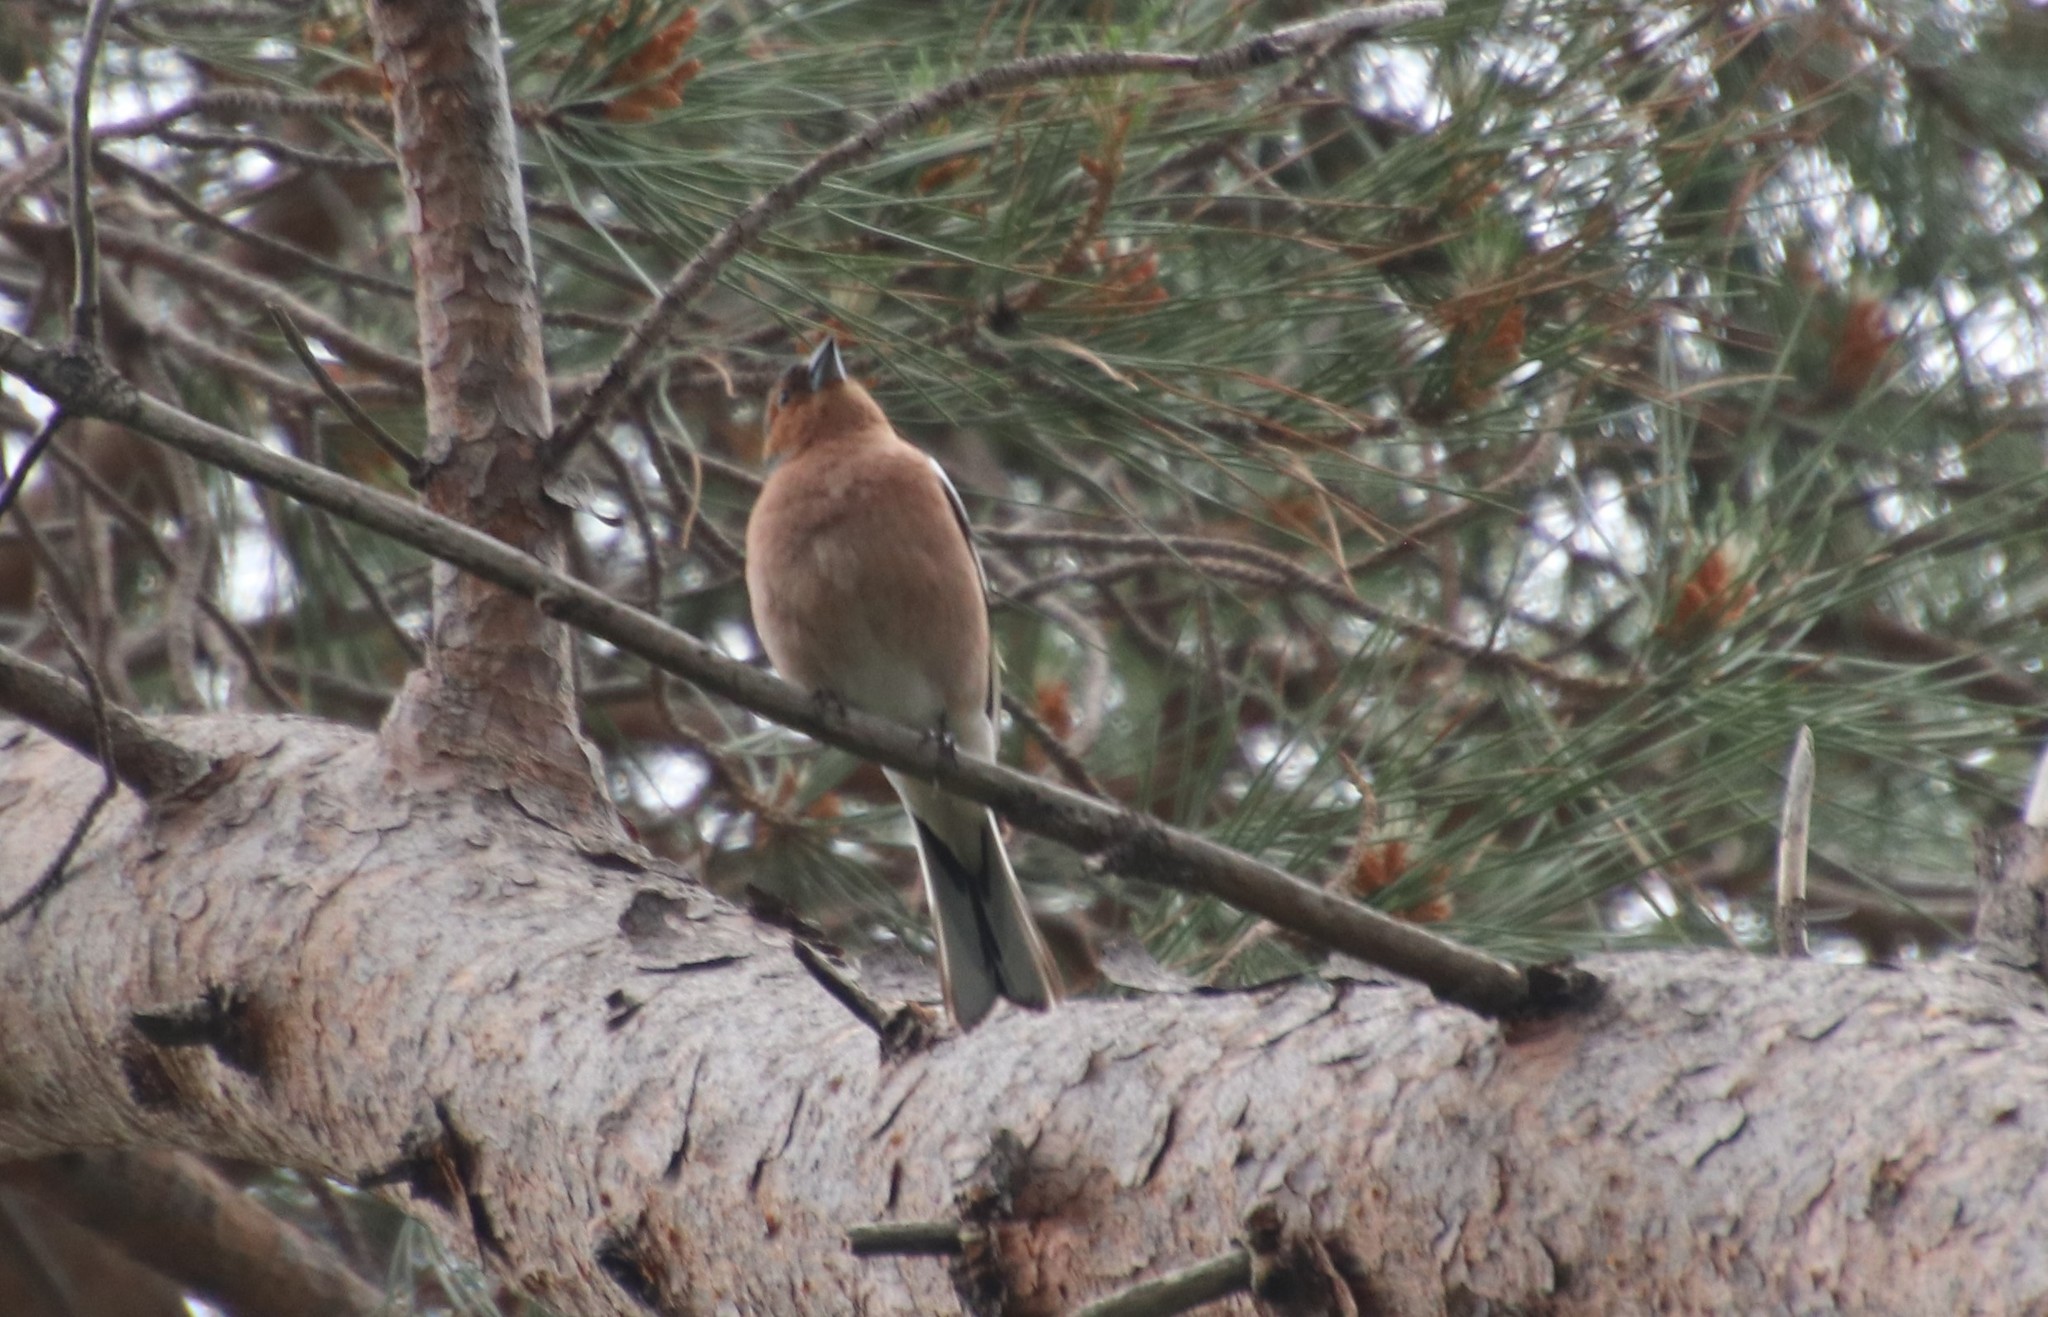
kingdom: Animalia
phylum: Chordata
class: Aves
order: Passeriformes
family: Fringillidae
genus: Fringilla
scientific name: Fringilla coelebs
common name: Common chaffinch
